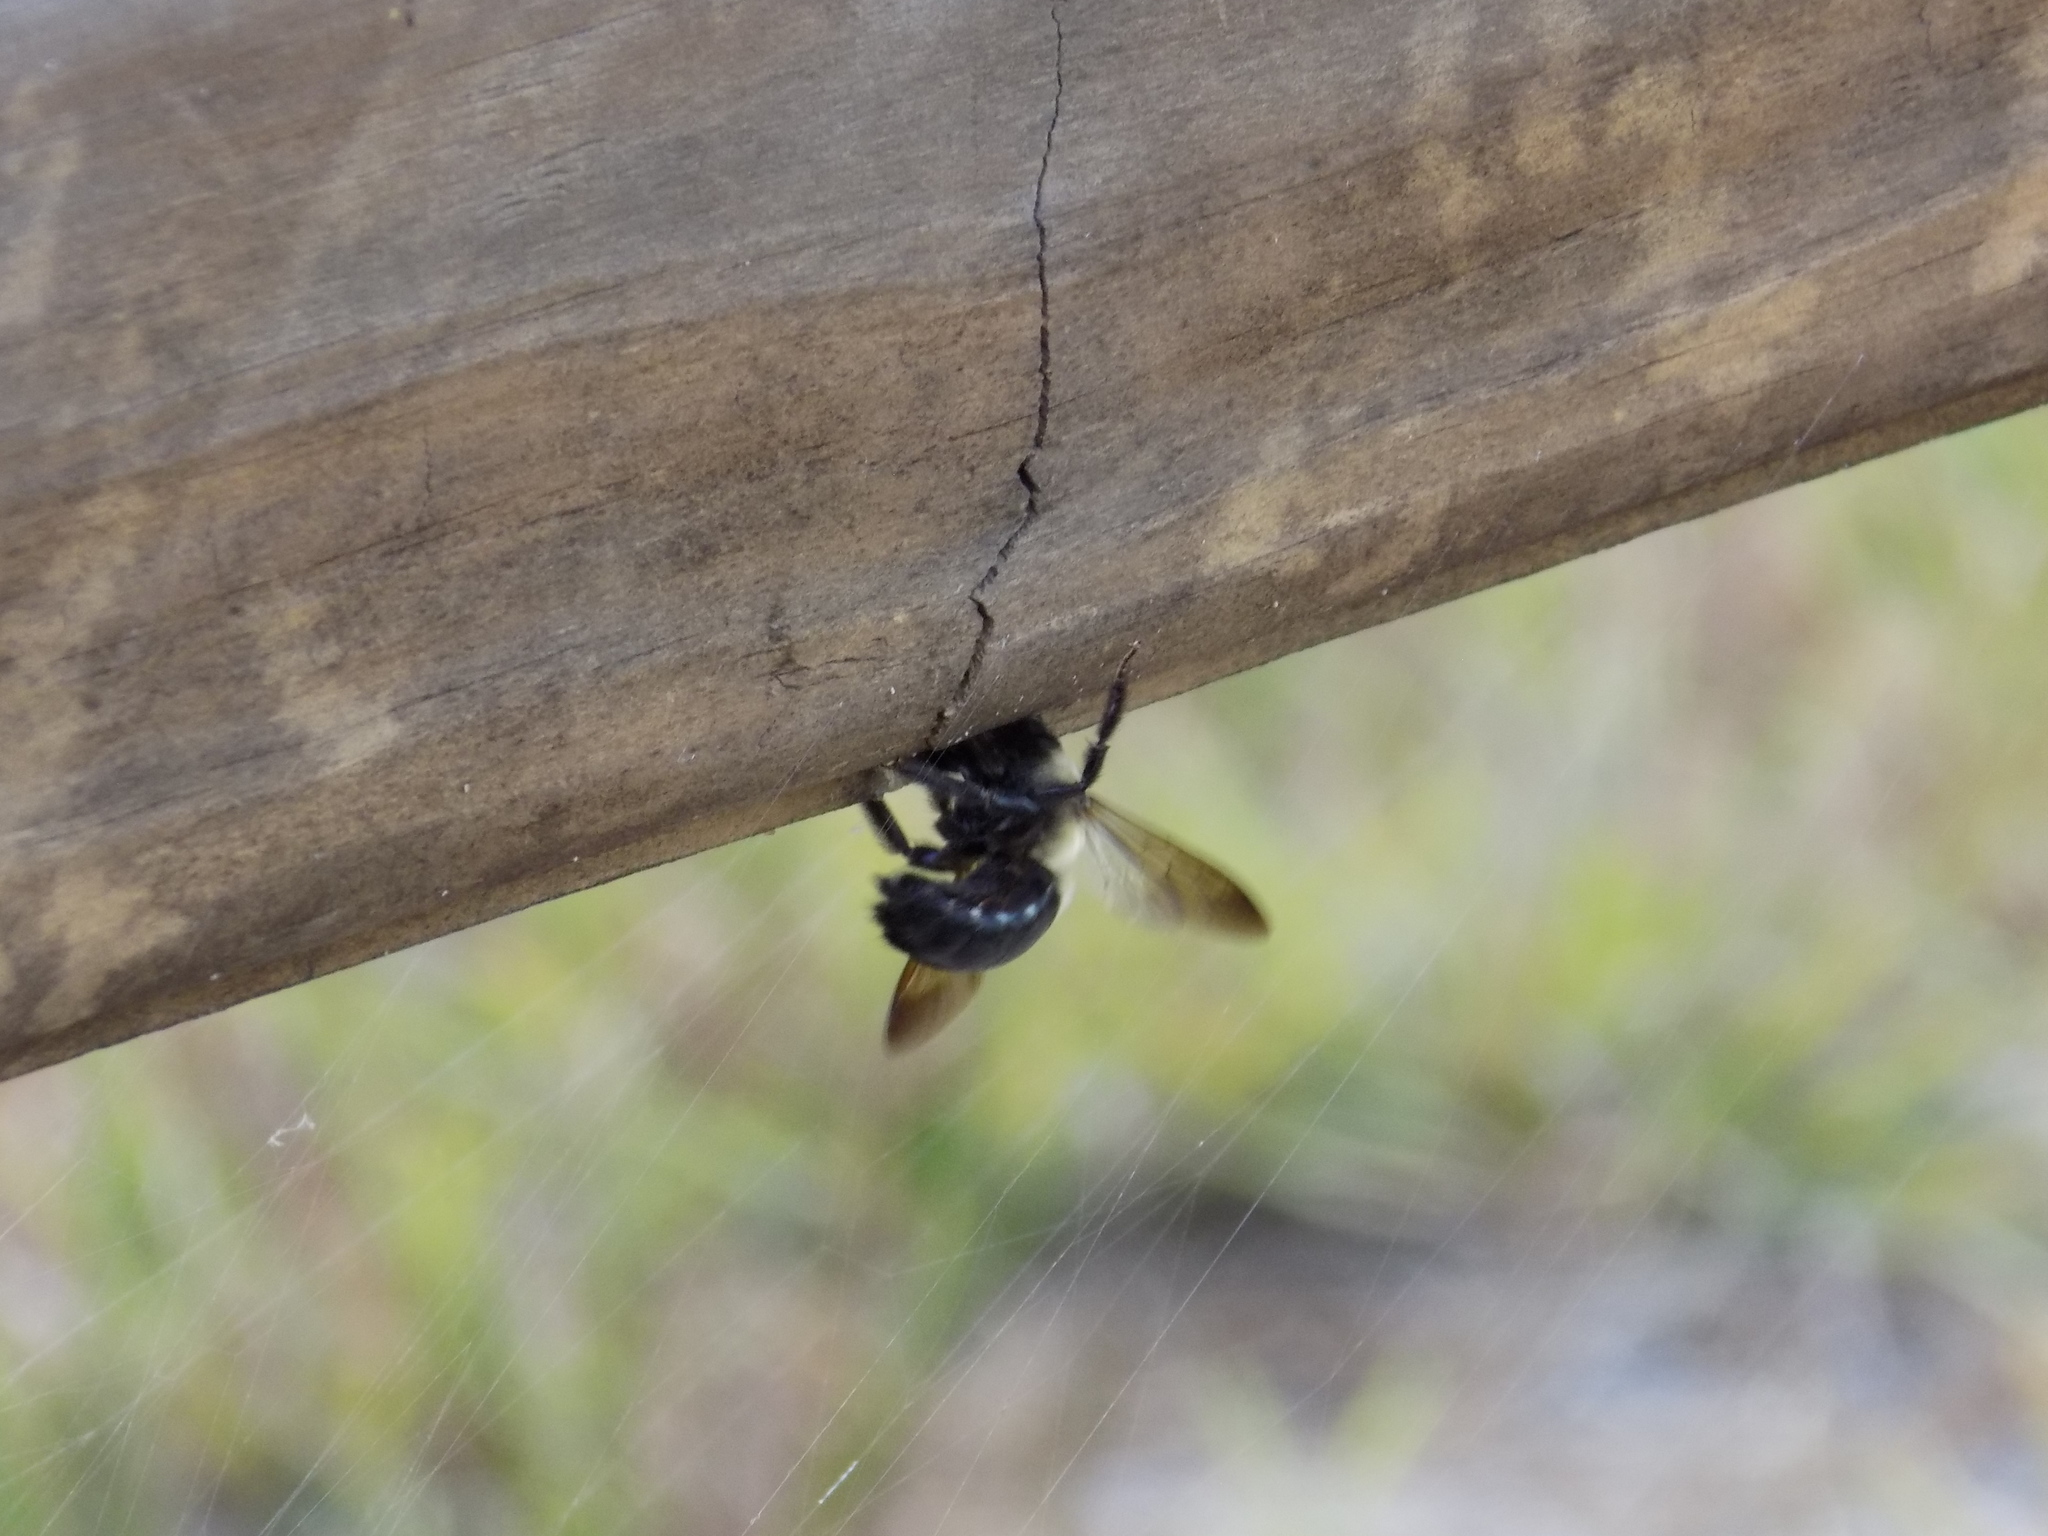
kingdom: Animalia
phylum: Arthropoda
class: Insecta
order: Hymenoptera
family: Apidae
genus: Xylocopa
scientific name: Xylocopa virginica
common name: Carpenter bee
